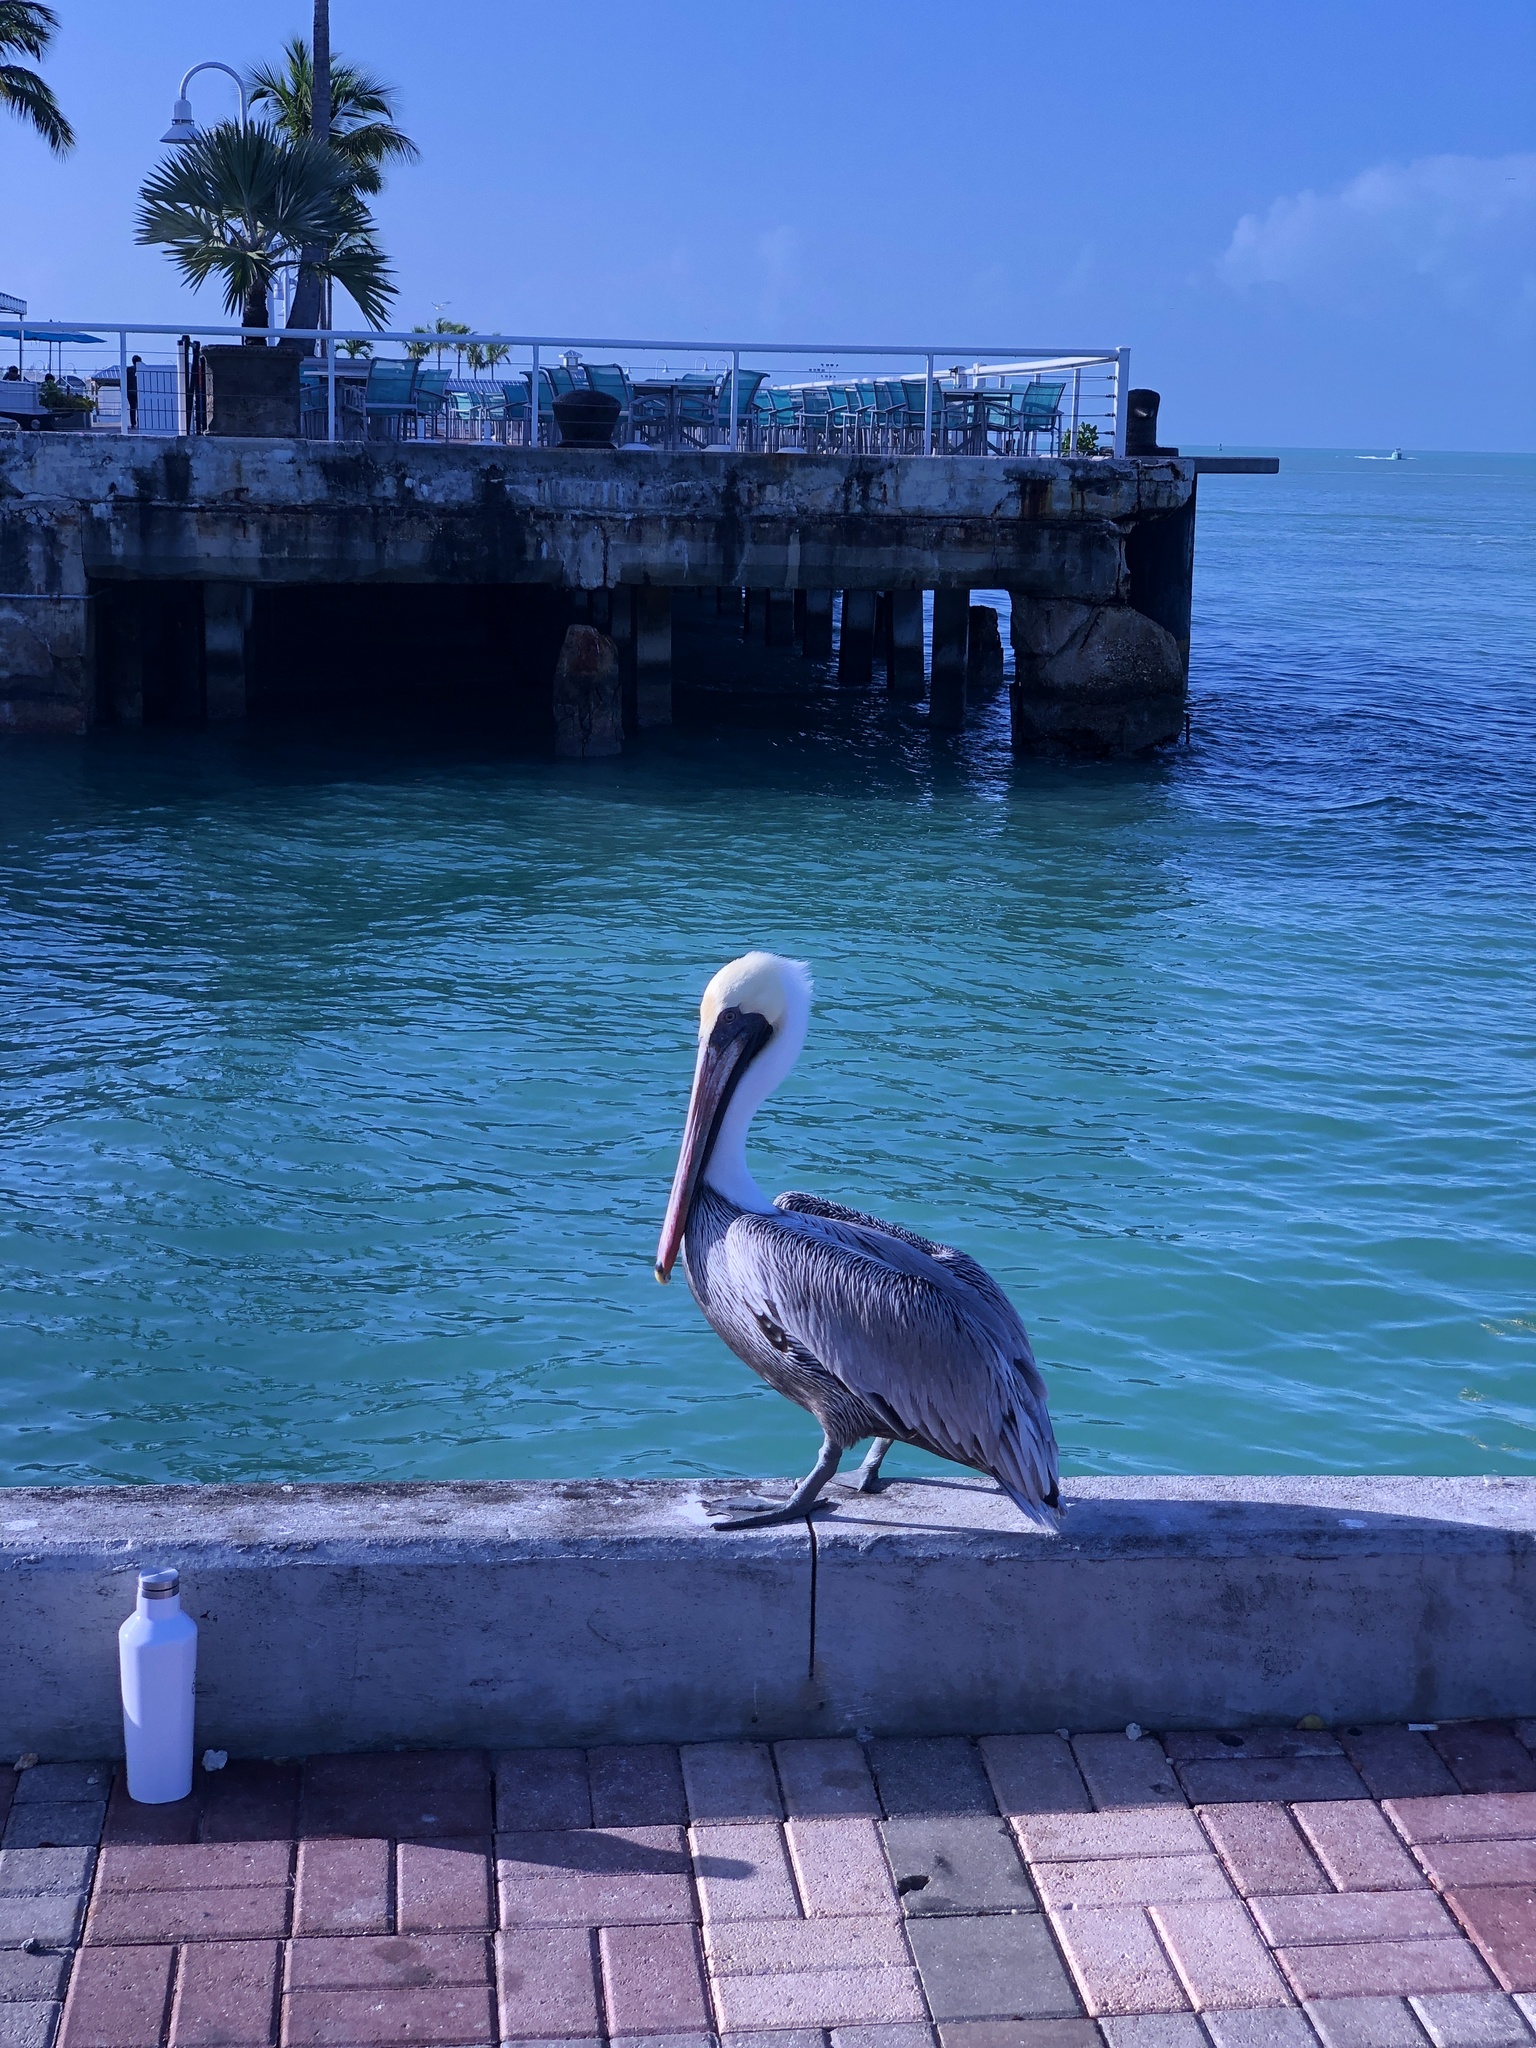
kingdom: Animalia
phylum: Chordata
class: Aves
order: Pelecaniformes
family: Pelecanidae
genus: Pelecanus
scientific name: Pelecanus occidentalis
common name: Brown pelican
